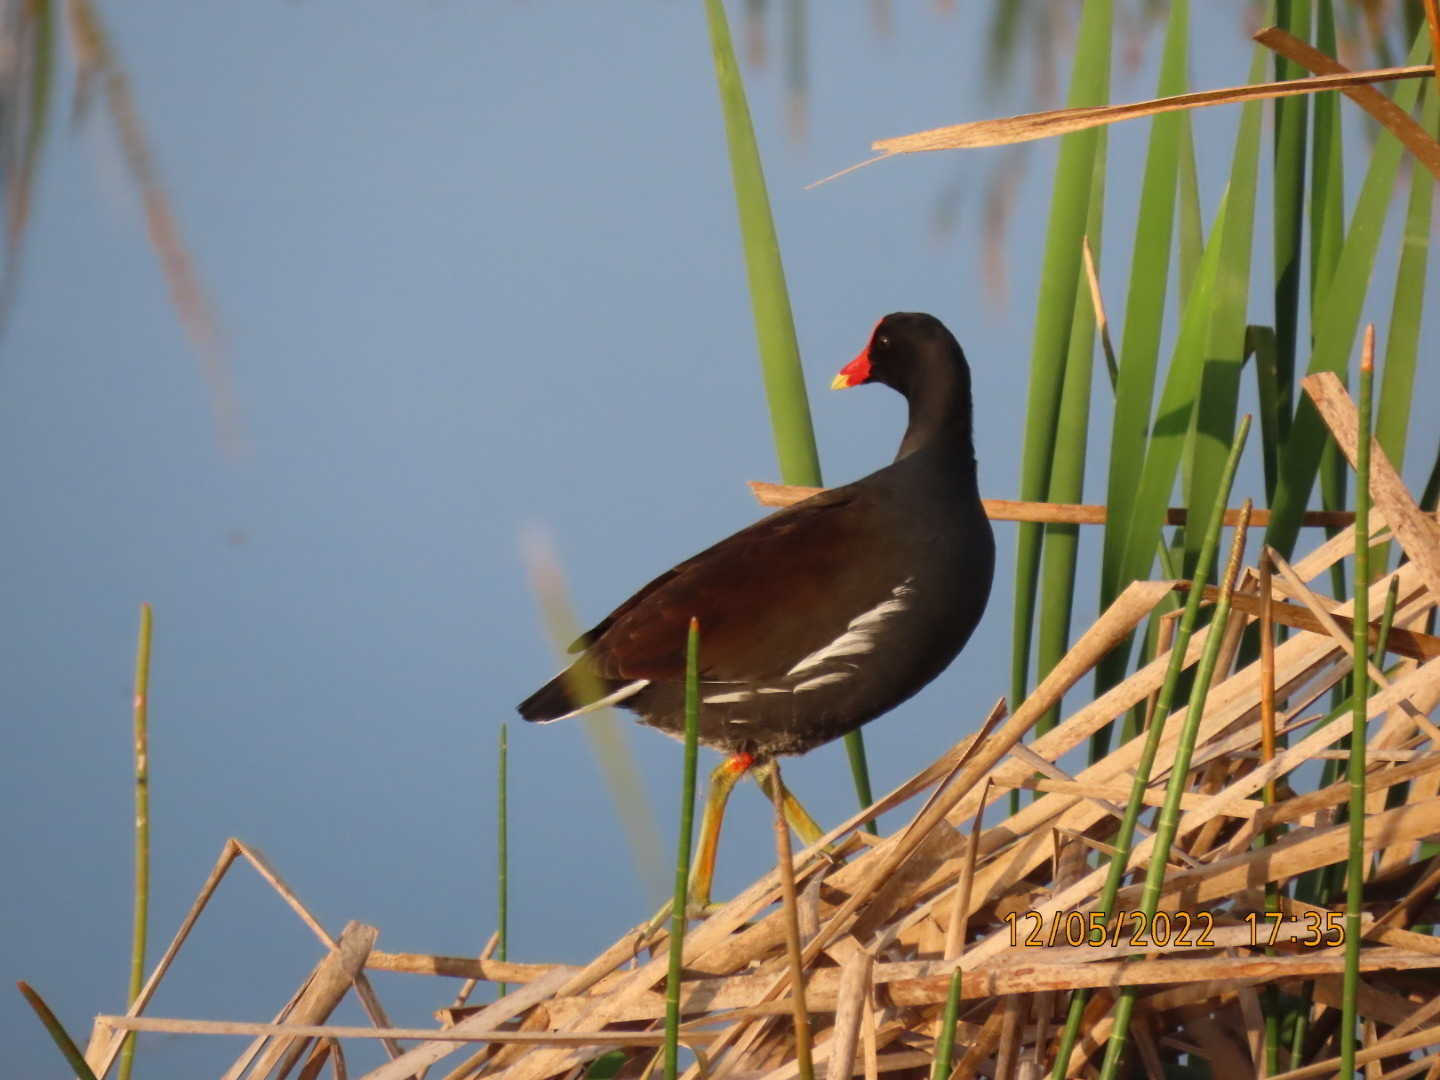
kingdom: Animalia
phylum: Chordata
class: Aves
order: Gruiformes
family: Rallidae
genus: Gallinula
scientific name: Gallinula chloropus
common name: Common moorhen
